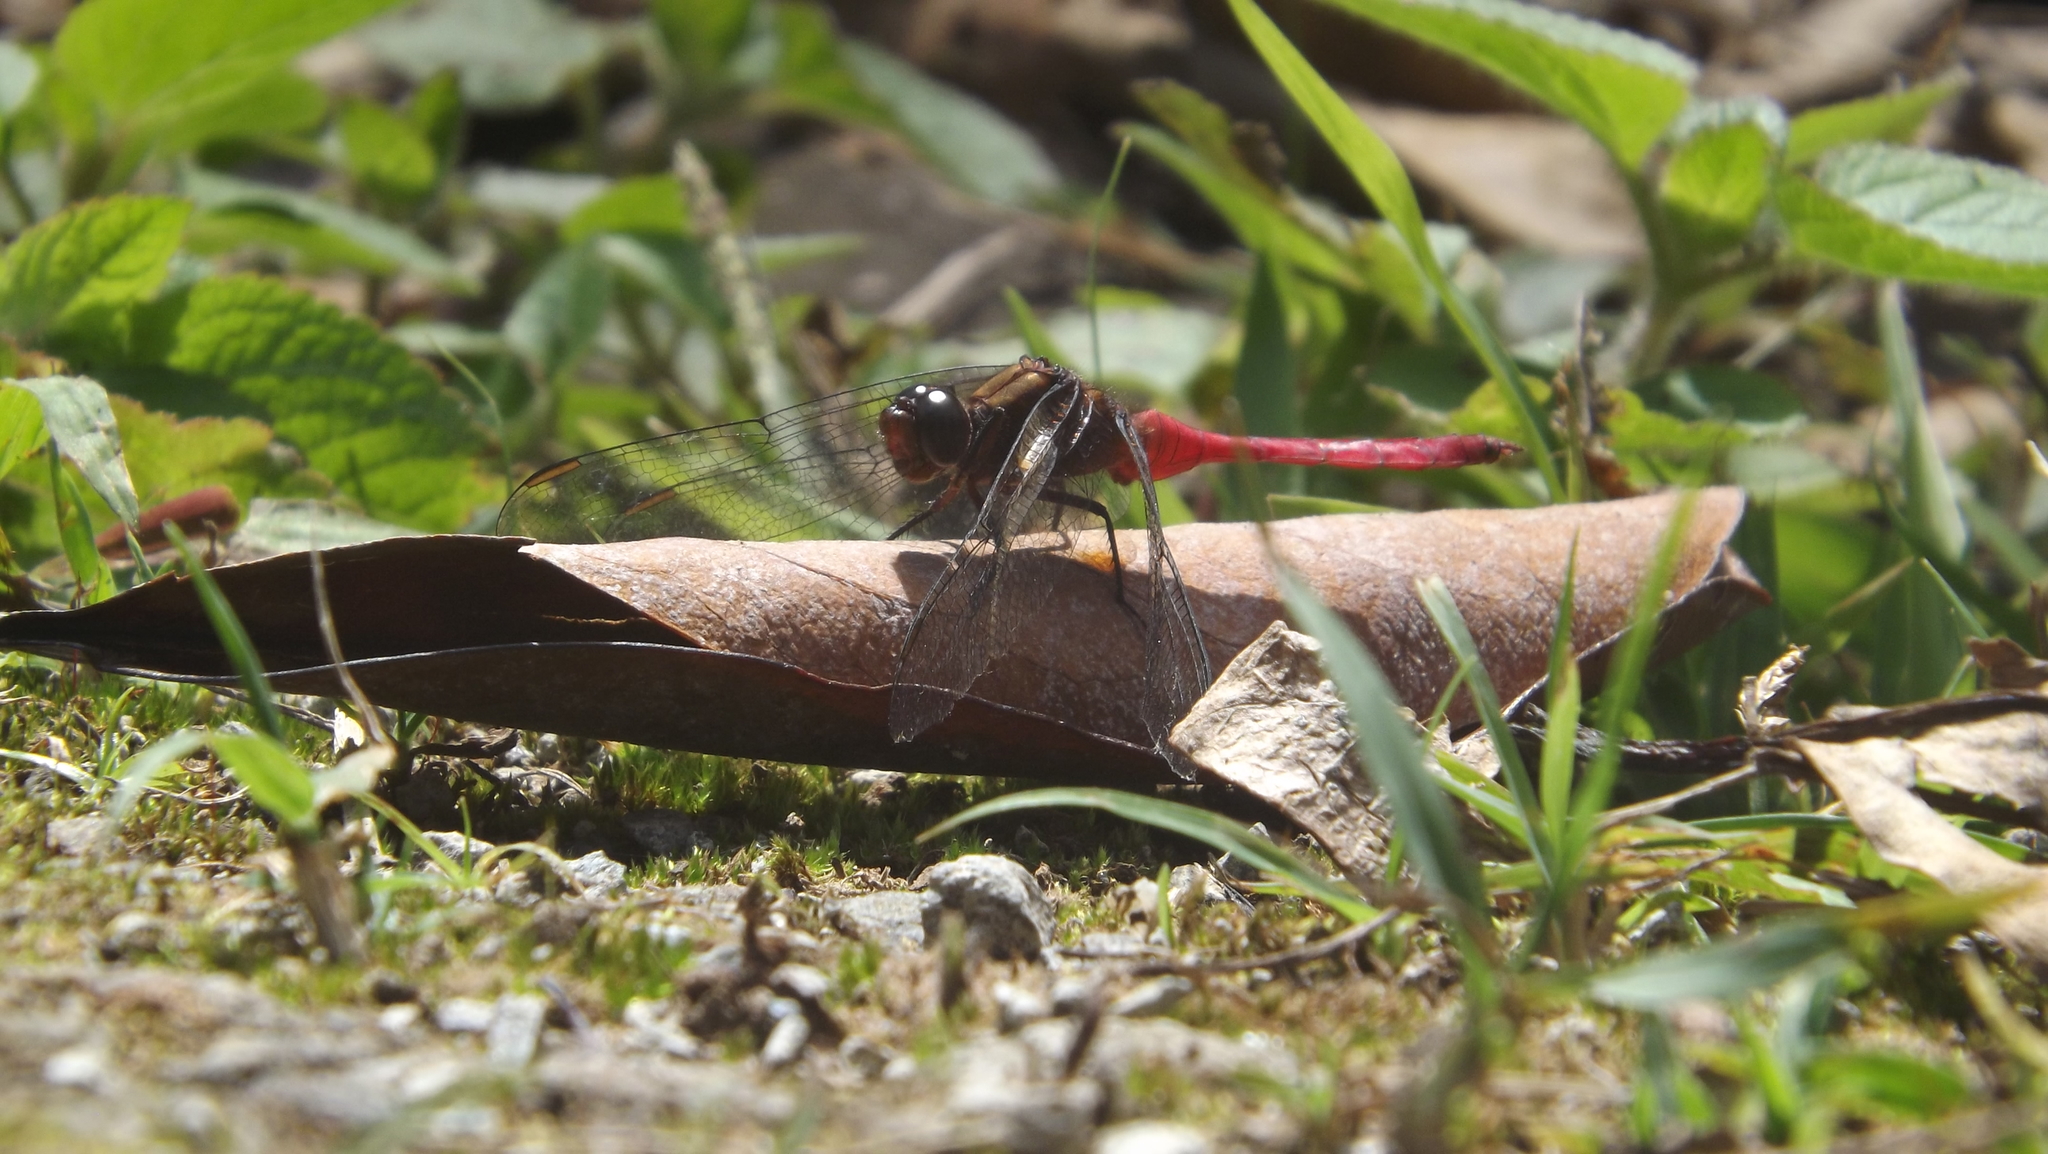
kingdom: Animalia
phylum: Arthropoda
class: Insecta
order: Odonata
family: Libellulidae
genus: Orthetrum
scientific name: Orthetrum villosovittatum
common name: Firery skimmer
